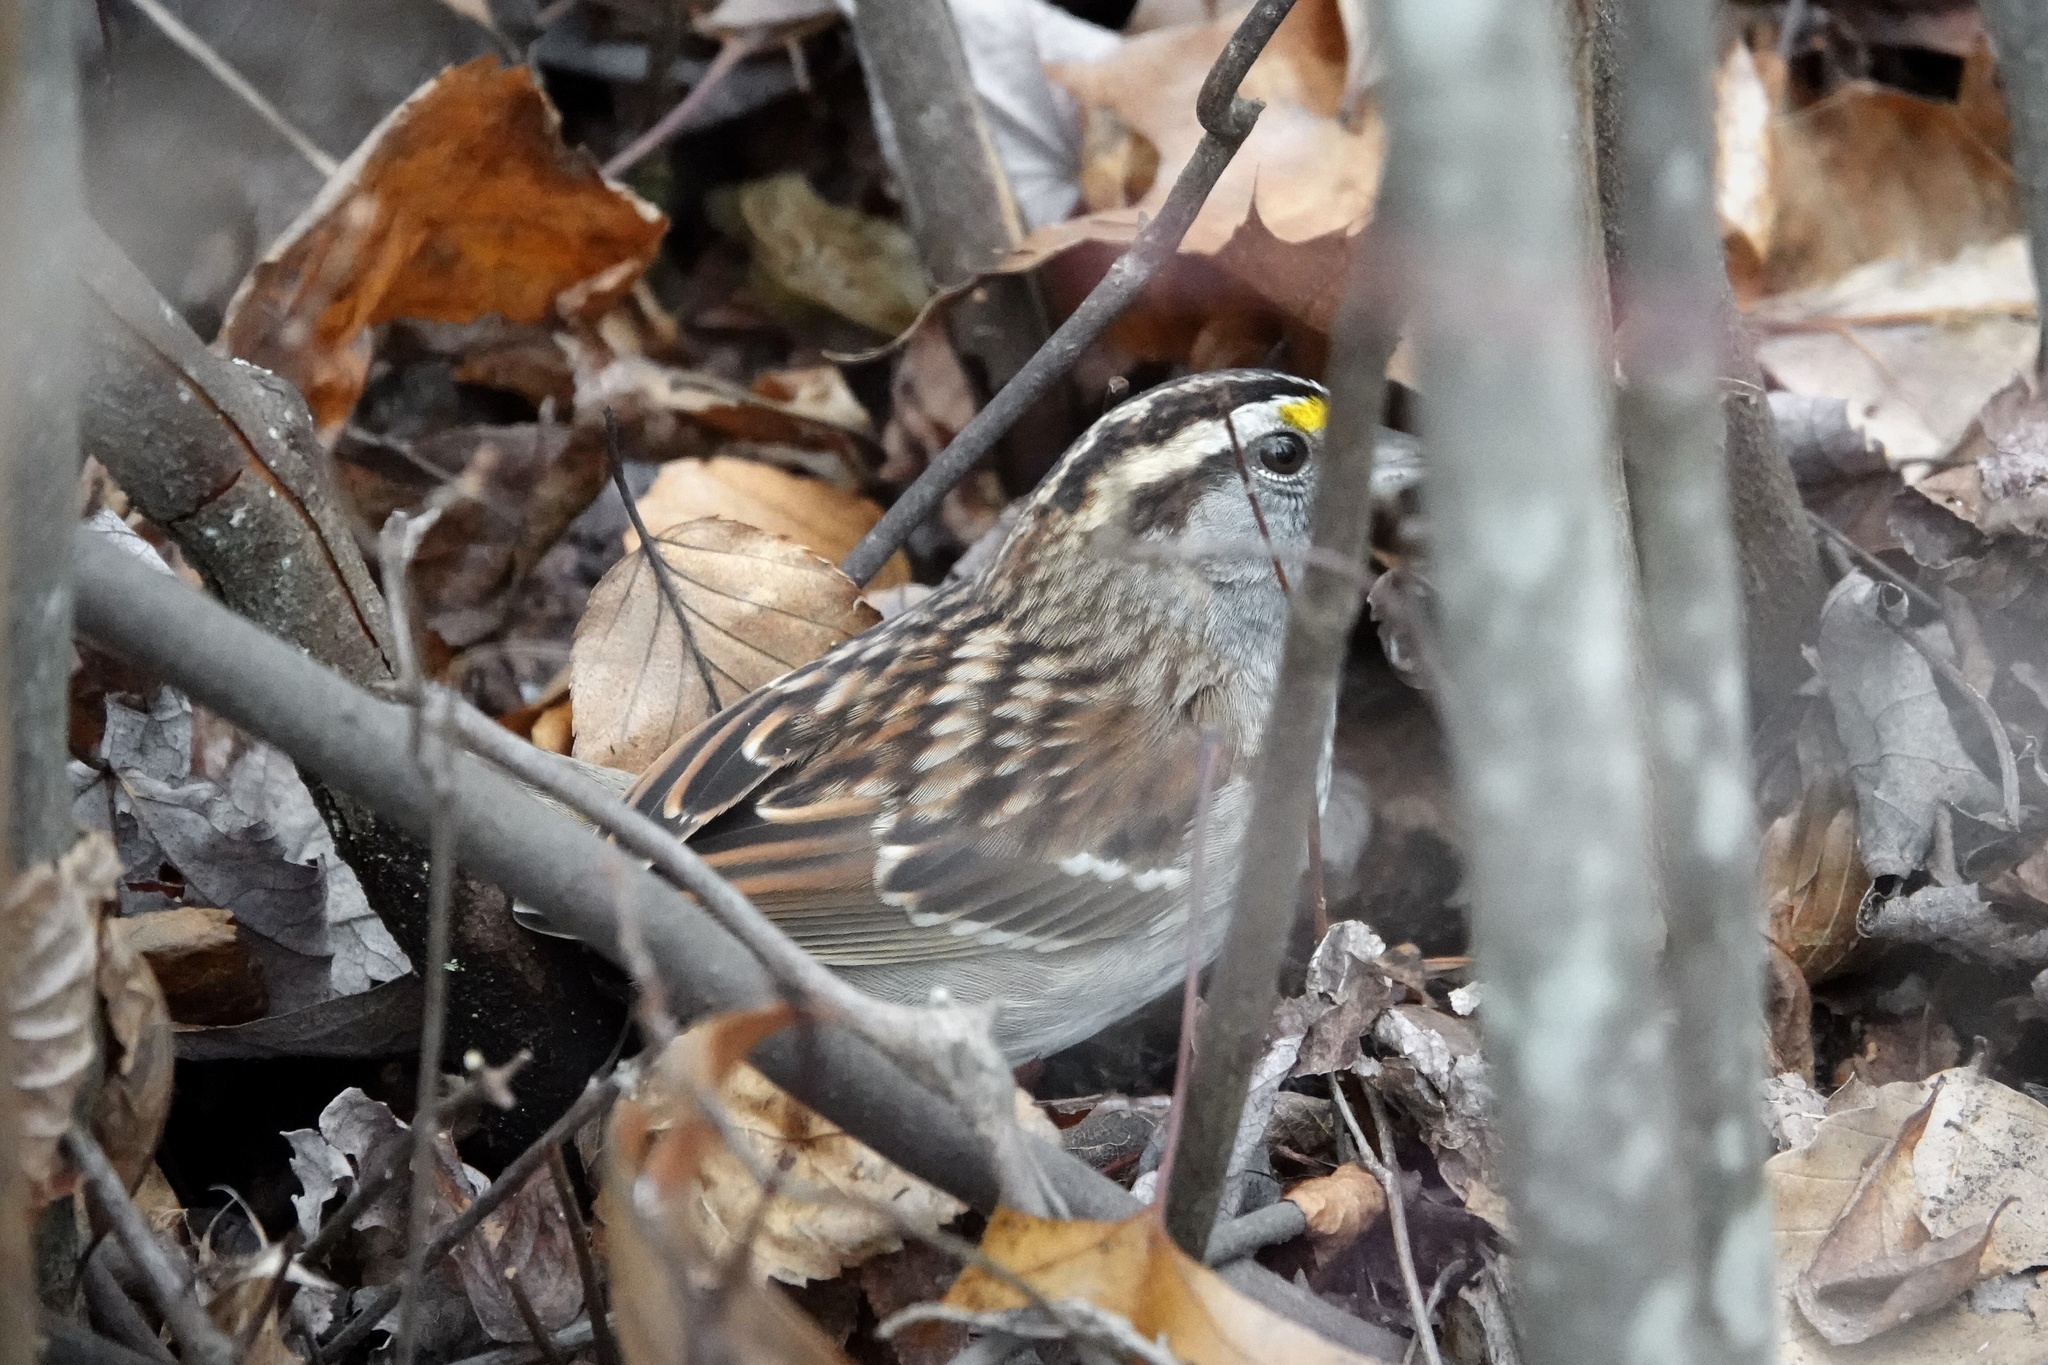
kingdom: Animalia
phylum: Chordata
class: Aves
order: Passeriformes
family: Passerellidae
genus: Zonotrichia
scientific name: Zonotrichia albicollis
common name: White-throated sparrow
